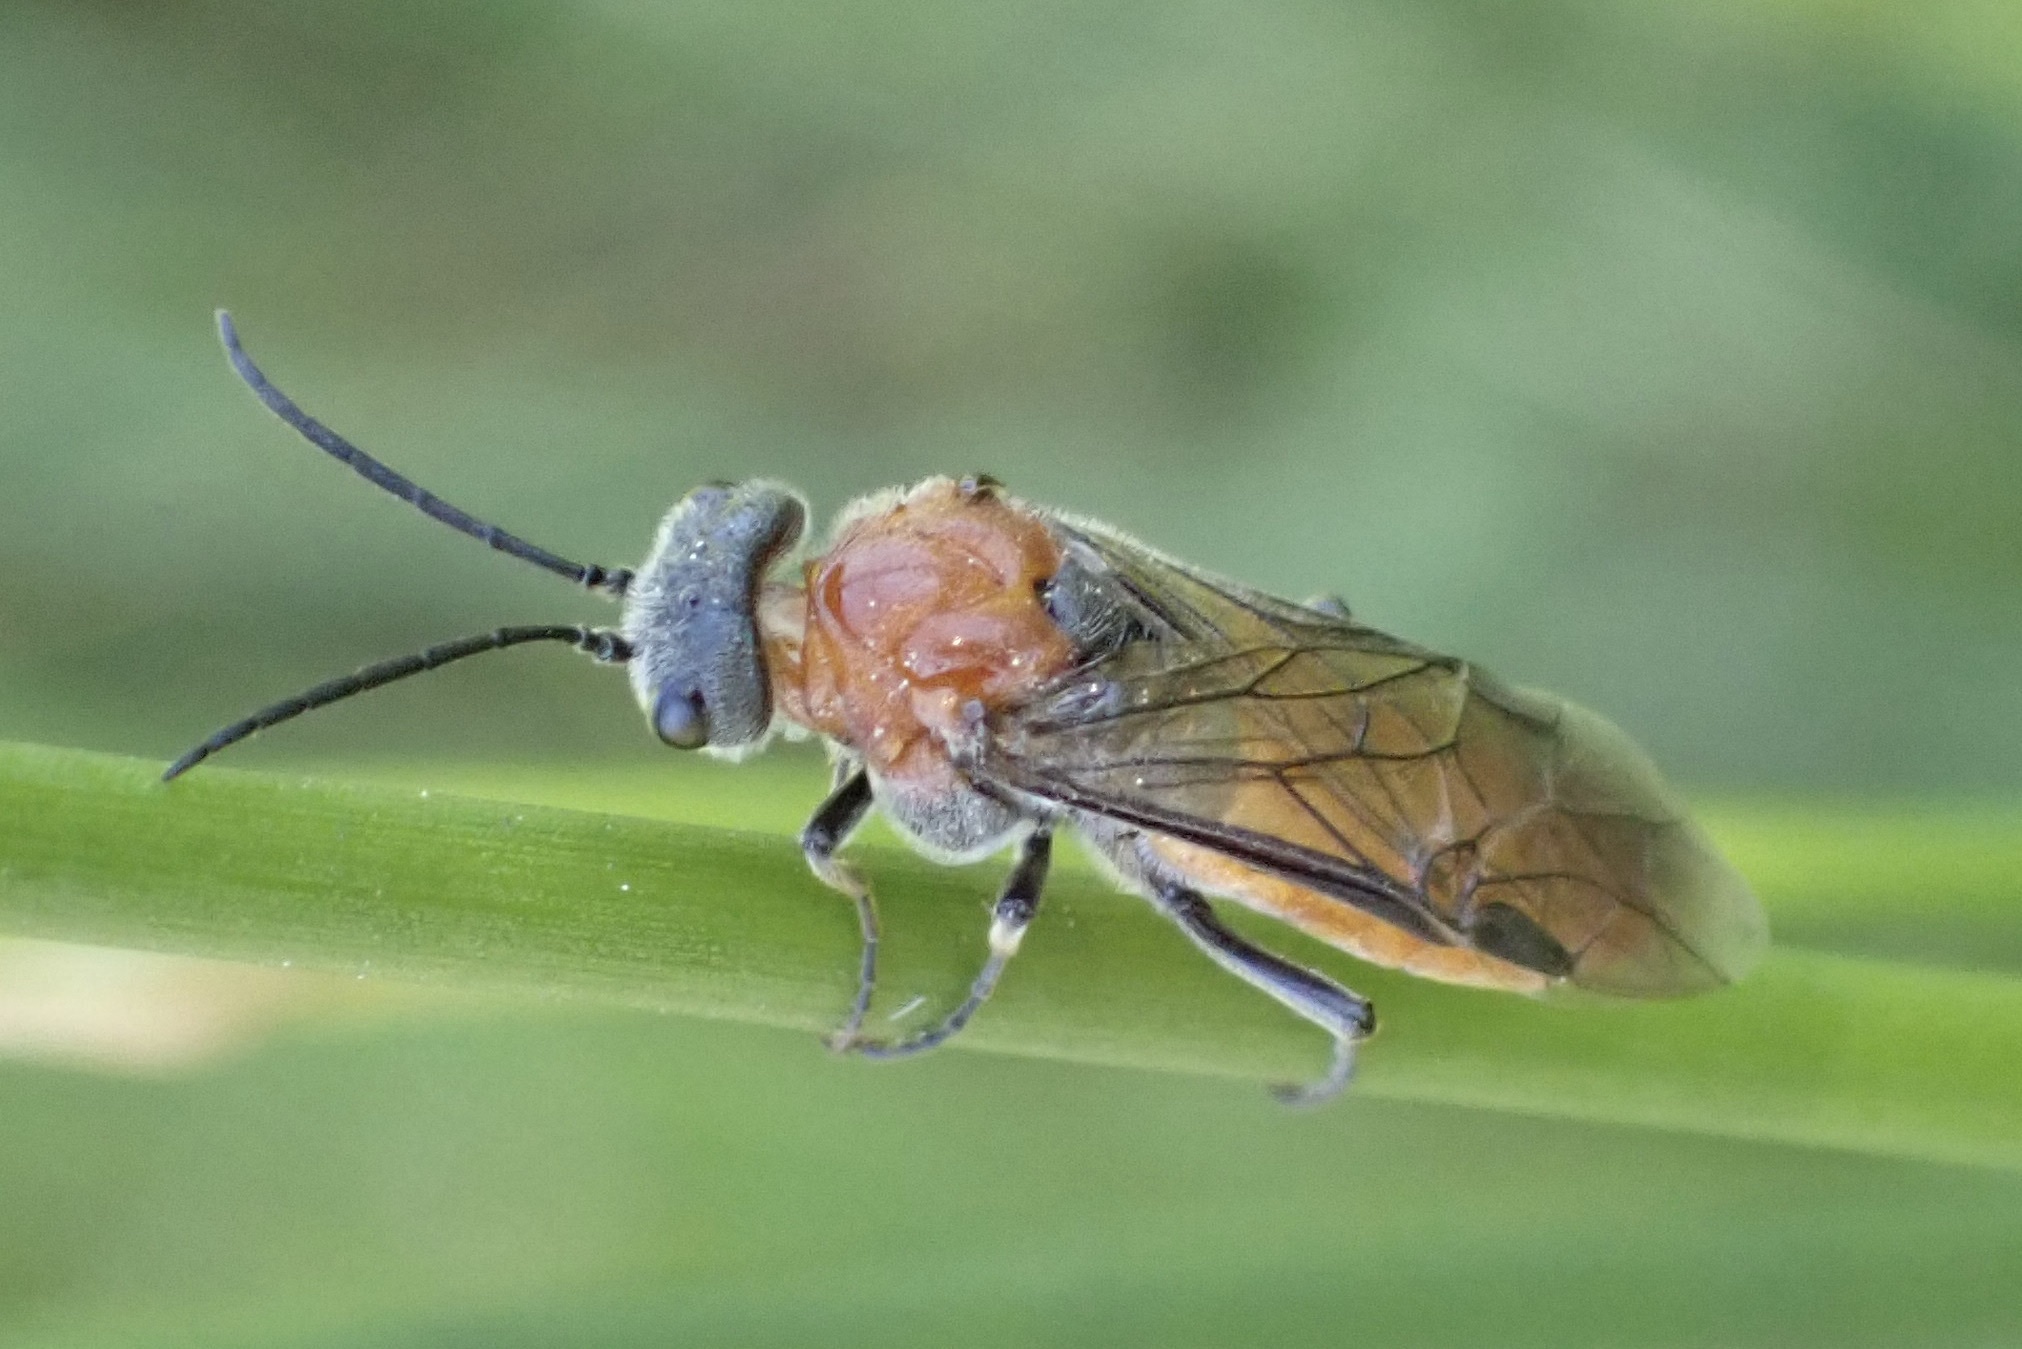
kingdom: Animalia
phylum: Arthropoda
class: Insecta
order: Hymenoptera
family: Tenthredinidae
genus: Dolerus
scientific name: Dolerus aericeps
